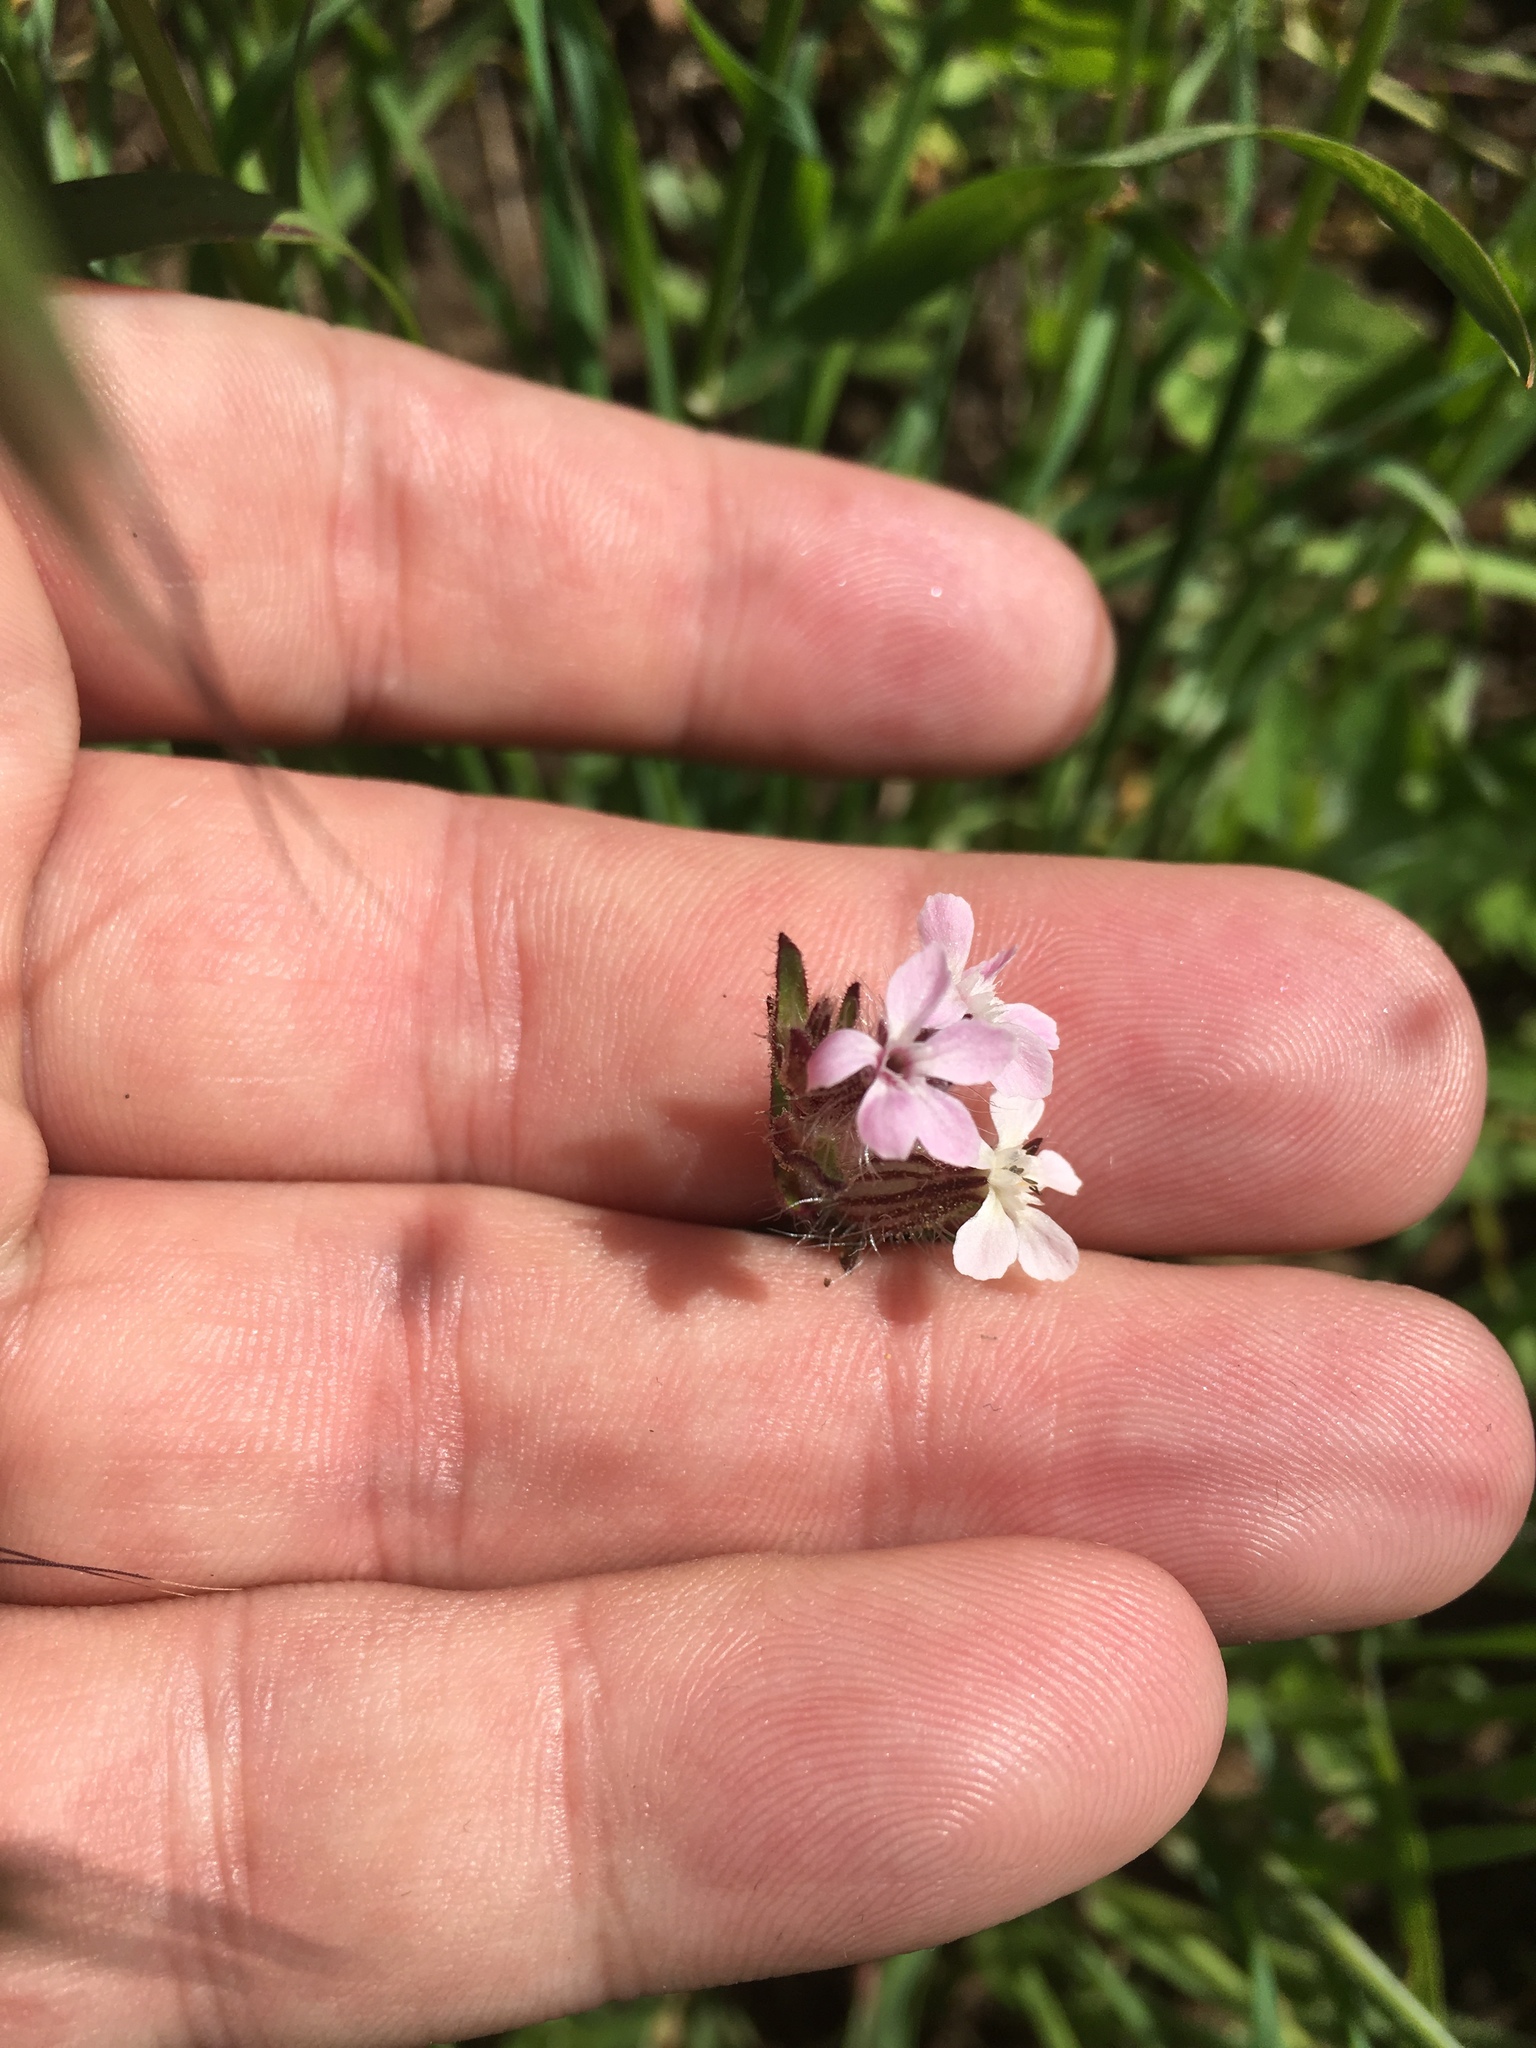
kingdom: Plantae
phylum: Tracheophyta
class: Magnoliopsida
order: Caryophyllales
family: Caryophyllaceae
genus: Silene
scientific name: Silene gallica
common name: Small-flowered catchfly
